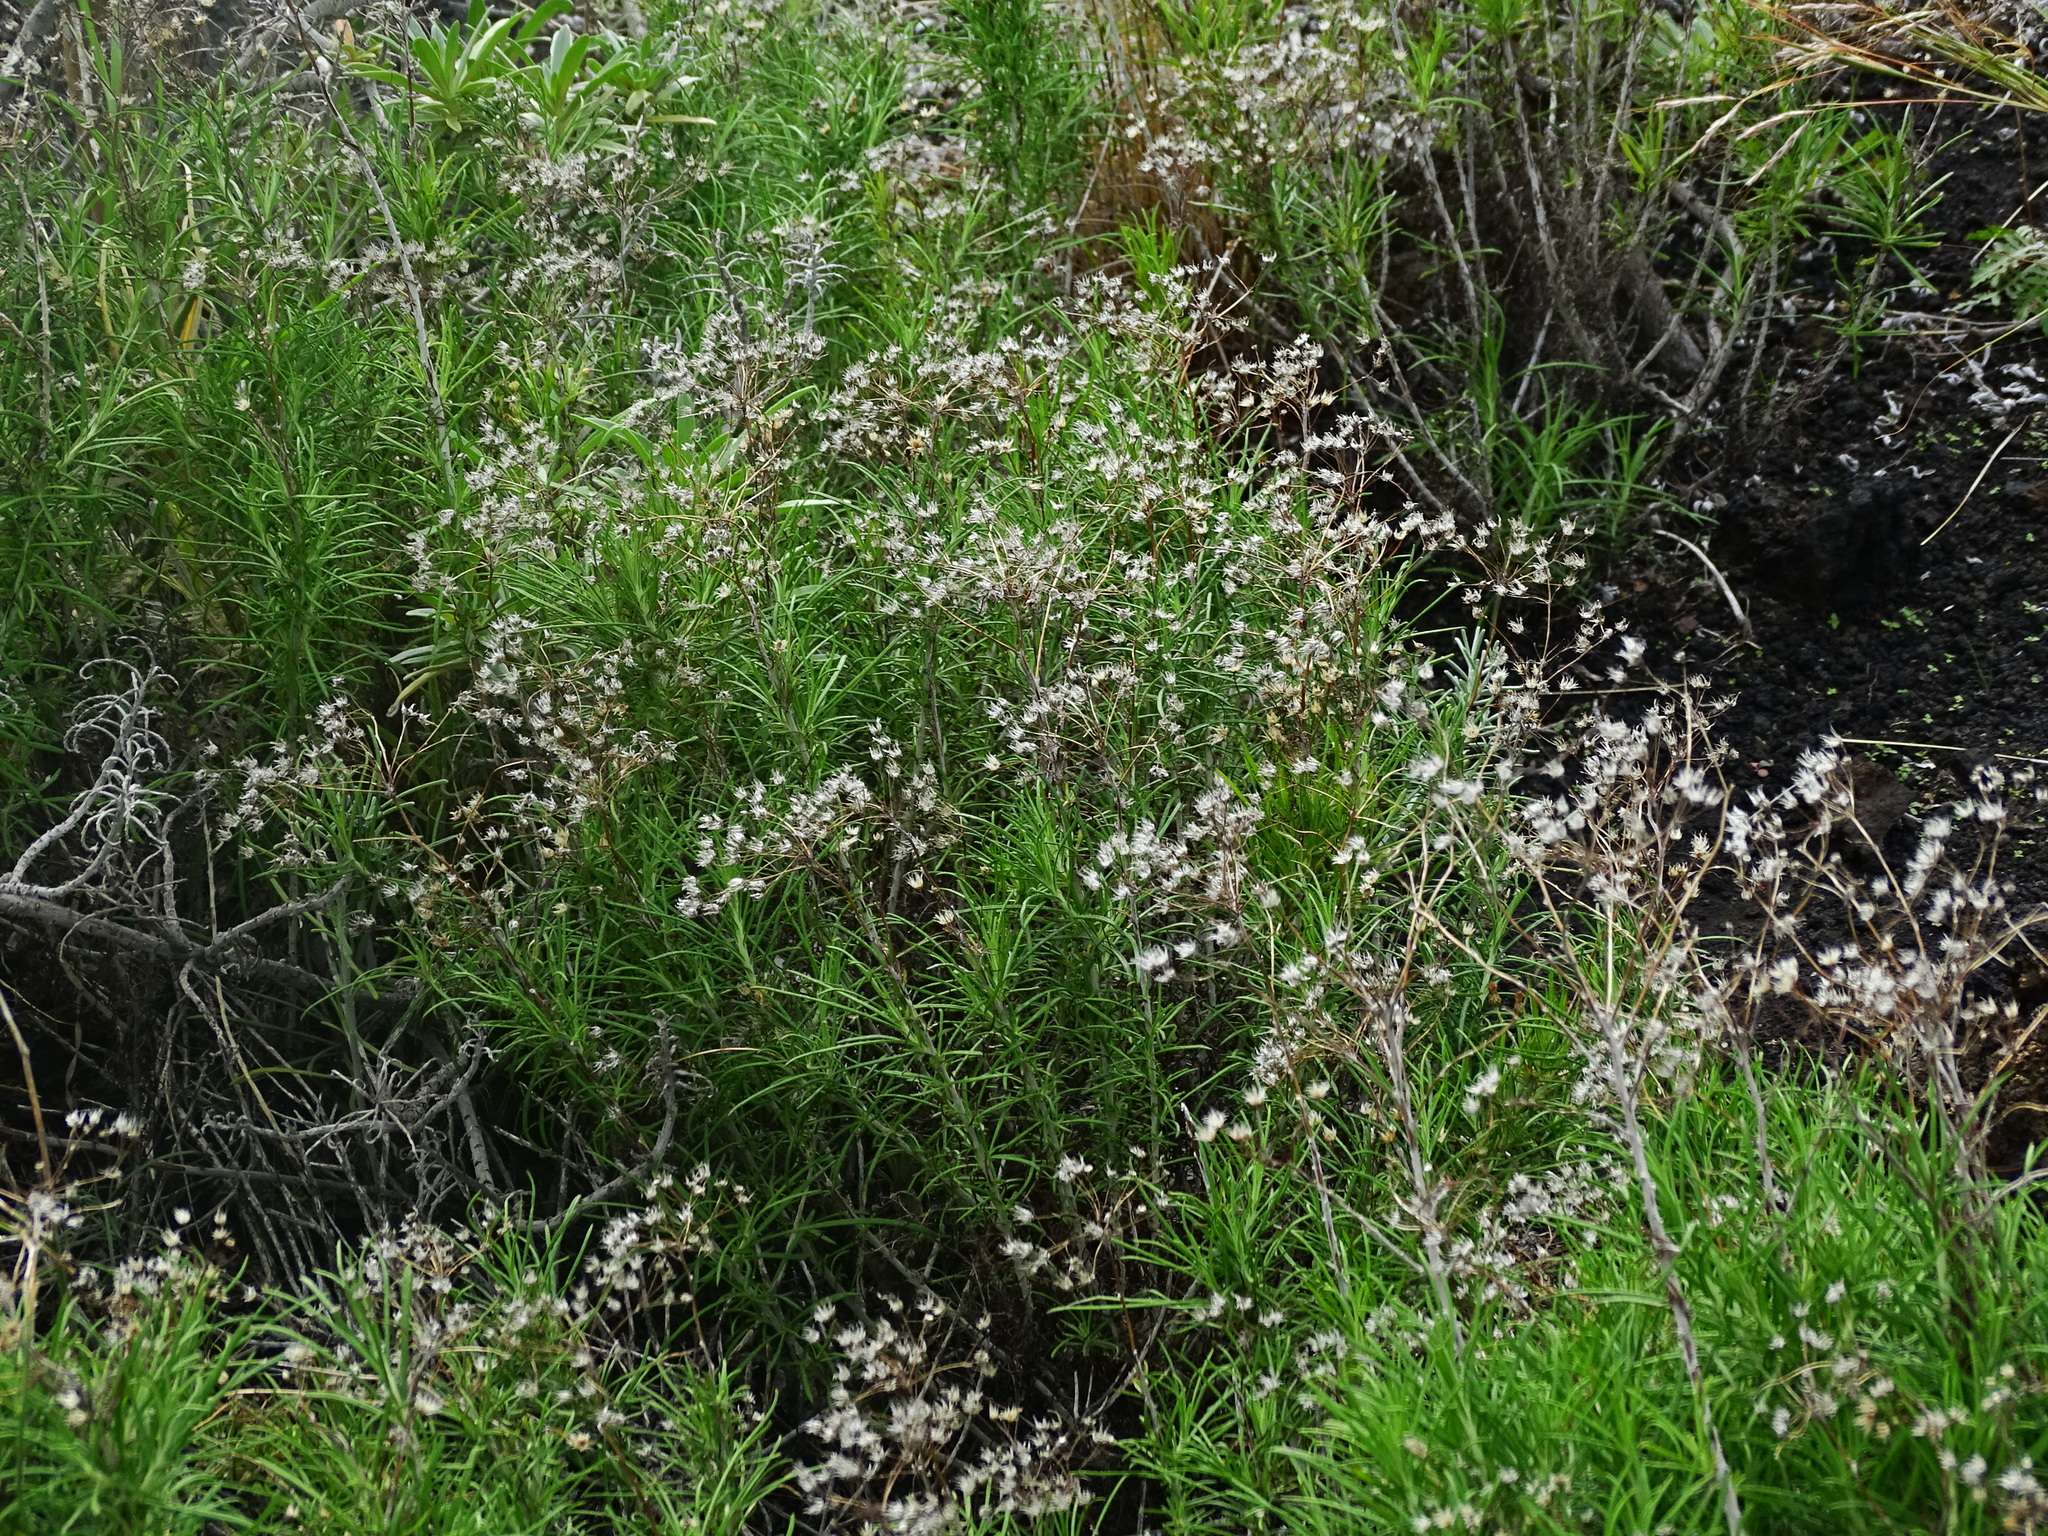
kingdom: Plantae
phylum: Tracheophyta
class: Magnoliopsida
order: Asterales
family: Asteraceae
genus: Phagnalon
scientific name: Phagnalon umbelliforme
